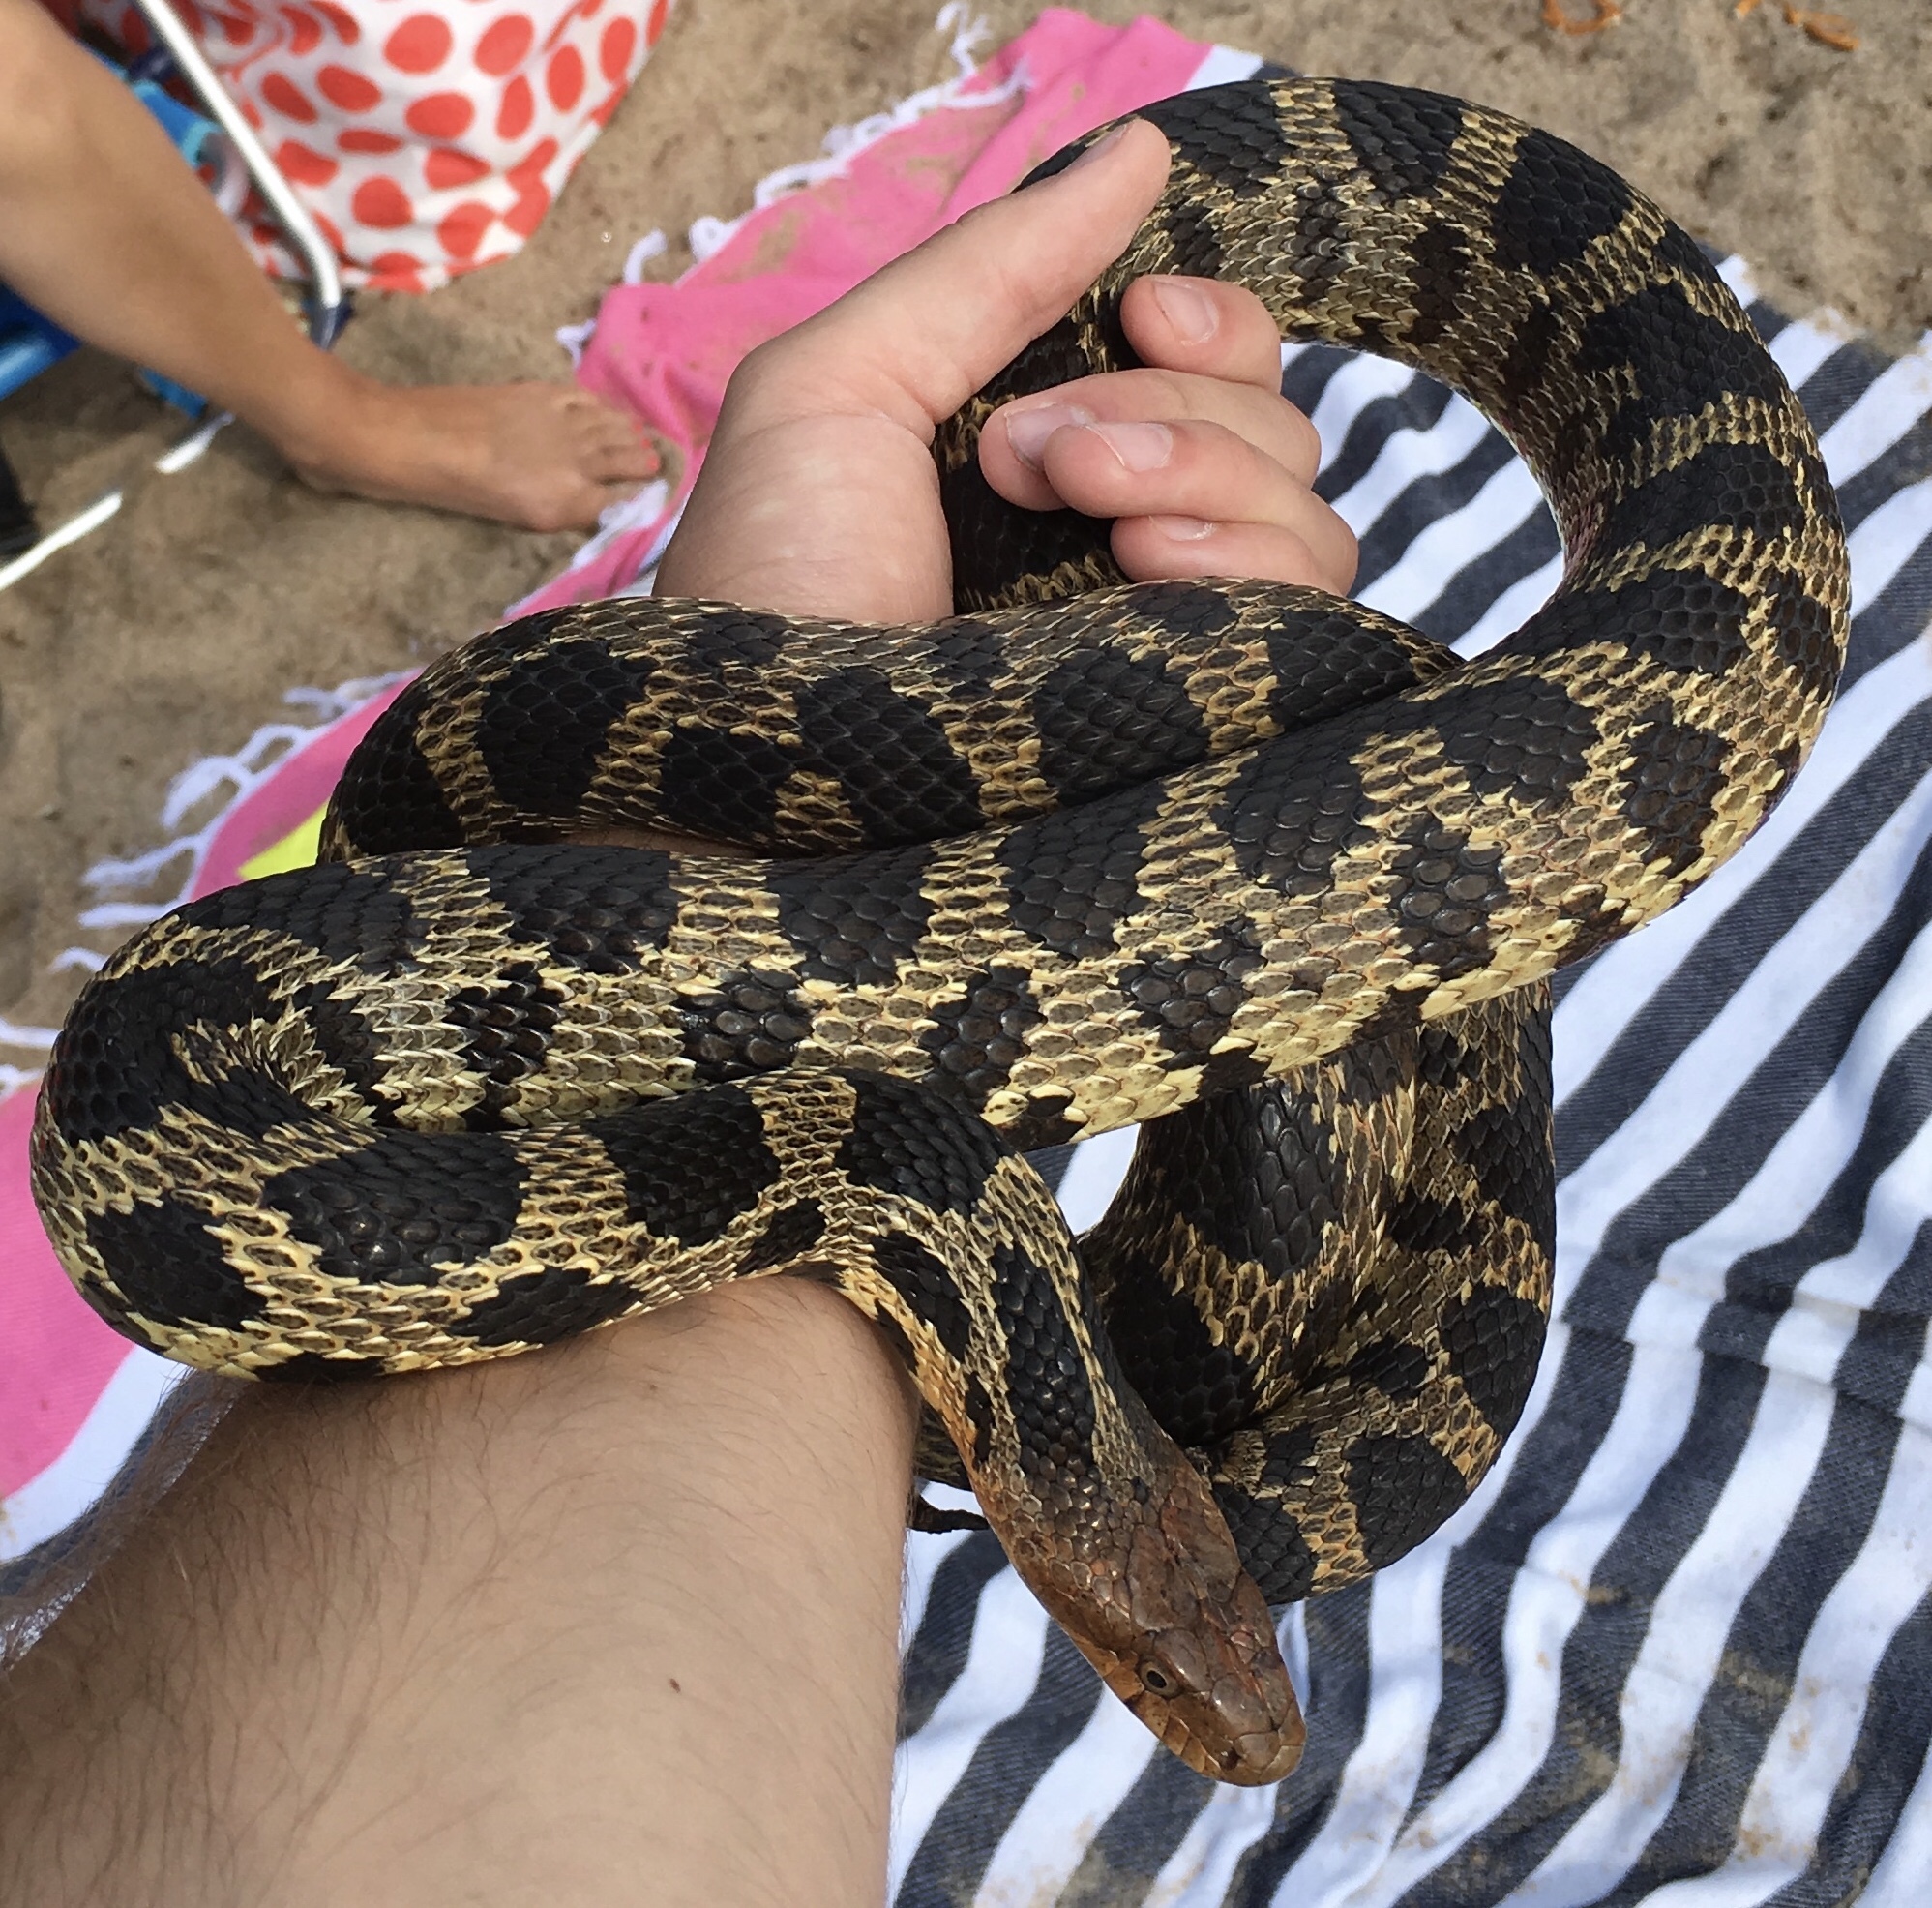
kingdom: Animalia
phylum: Chordata
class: Squamata
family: Colubridae
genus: Pantherophis
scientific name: Pantherophis vulpinus
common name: Eastern fox snake
